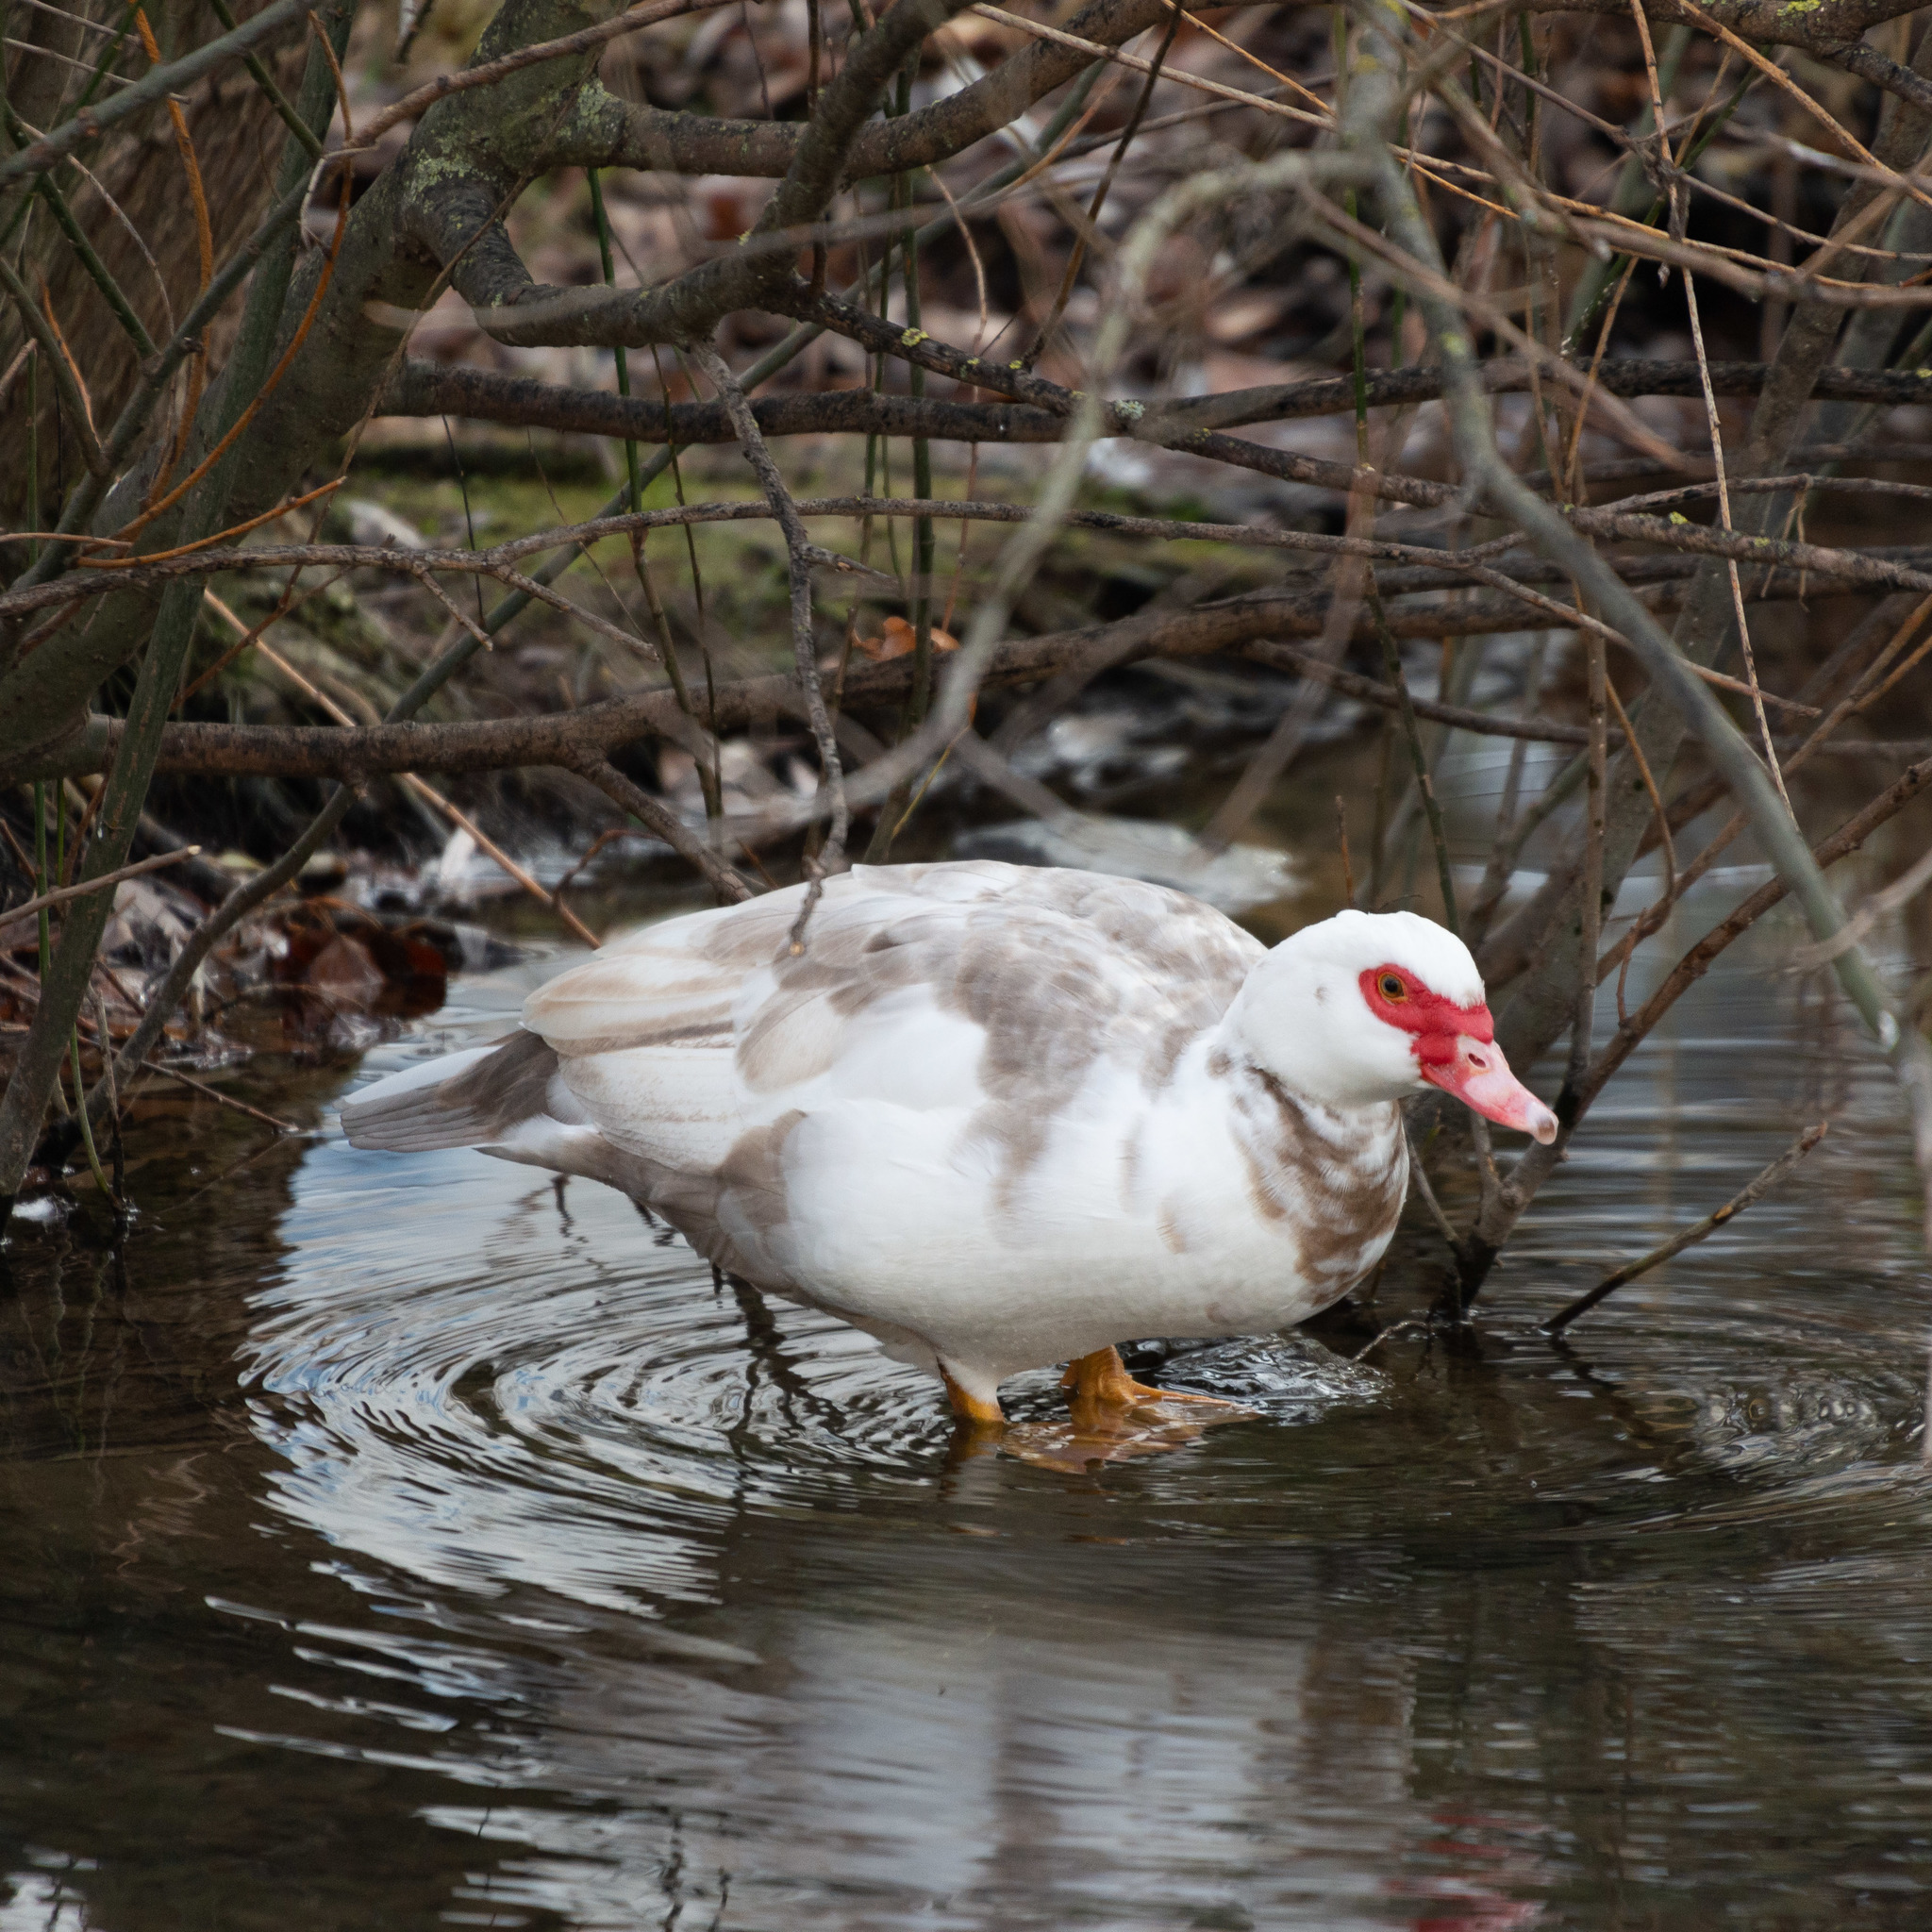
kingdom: Animalia
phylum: Chordata
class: Aves
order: Anseriformes
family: Anatidae
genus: Cairina
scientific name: Cairina moschata
